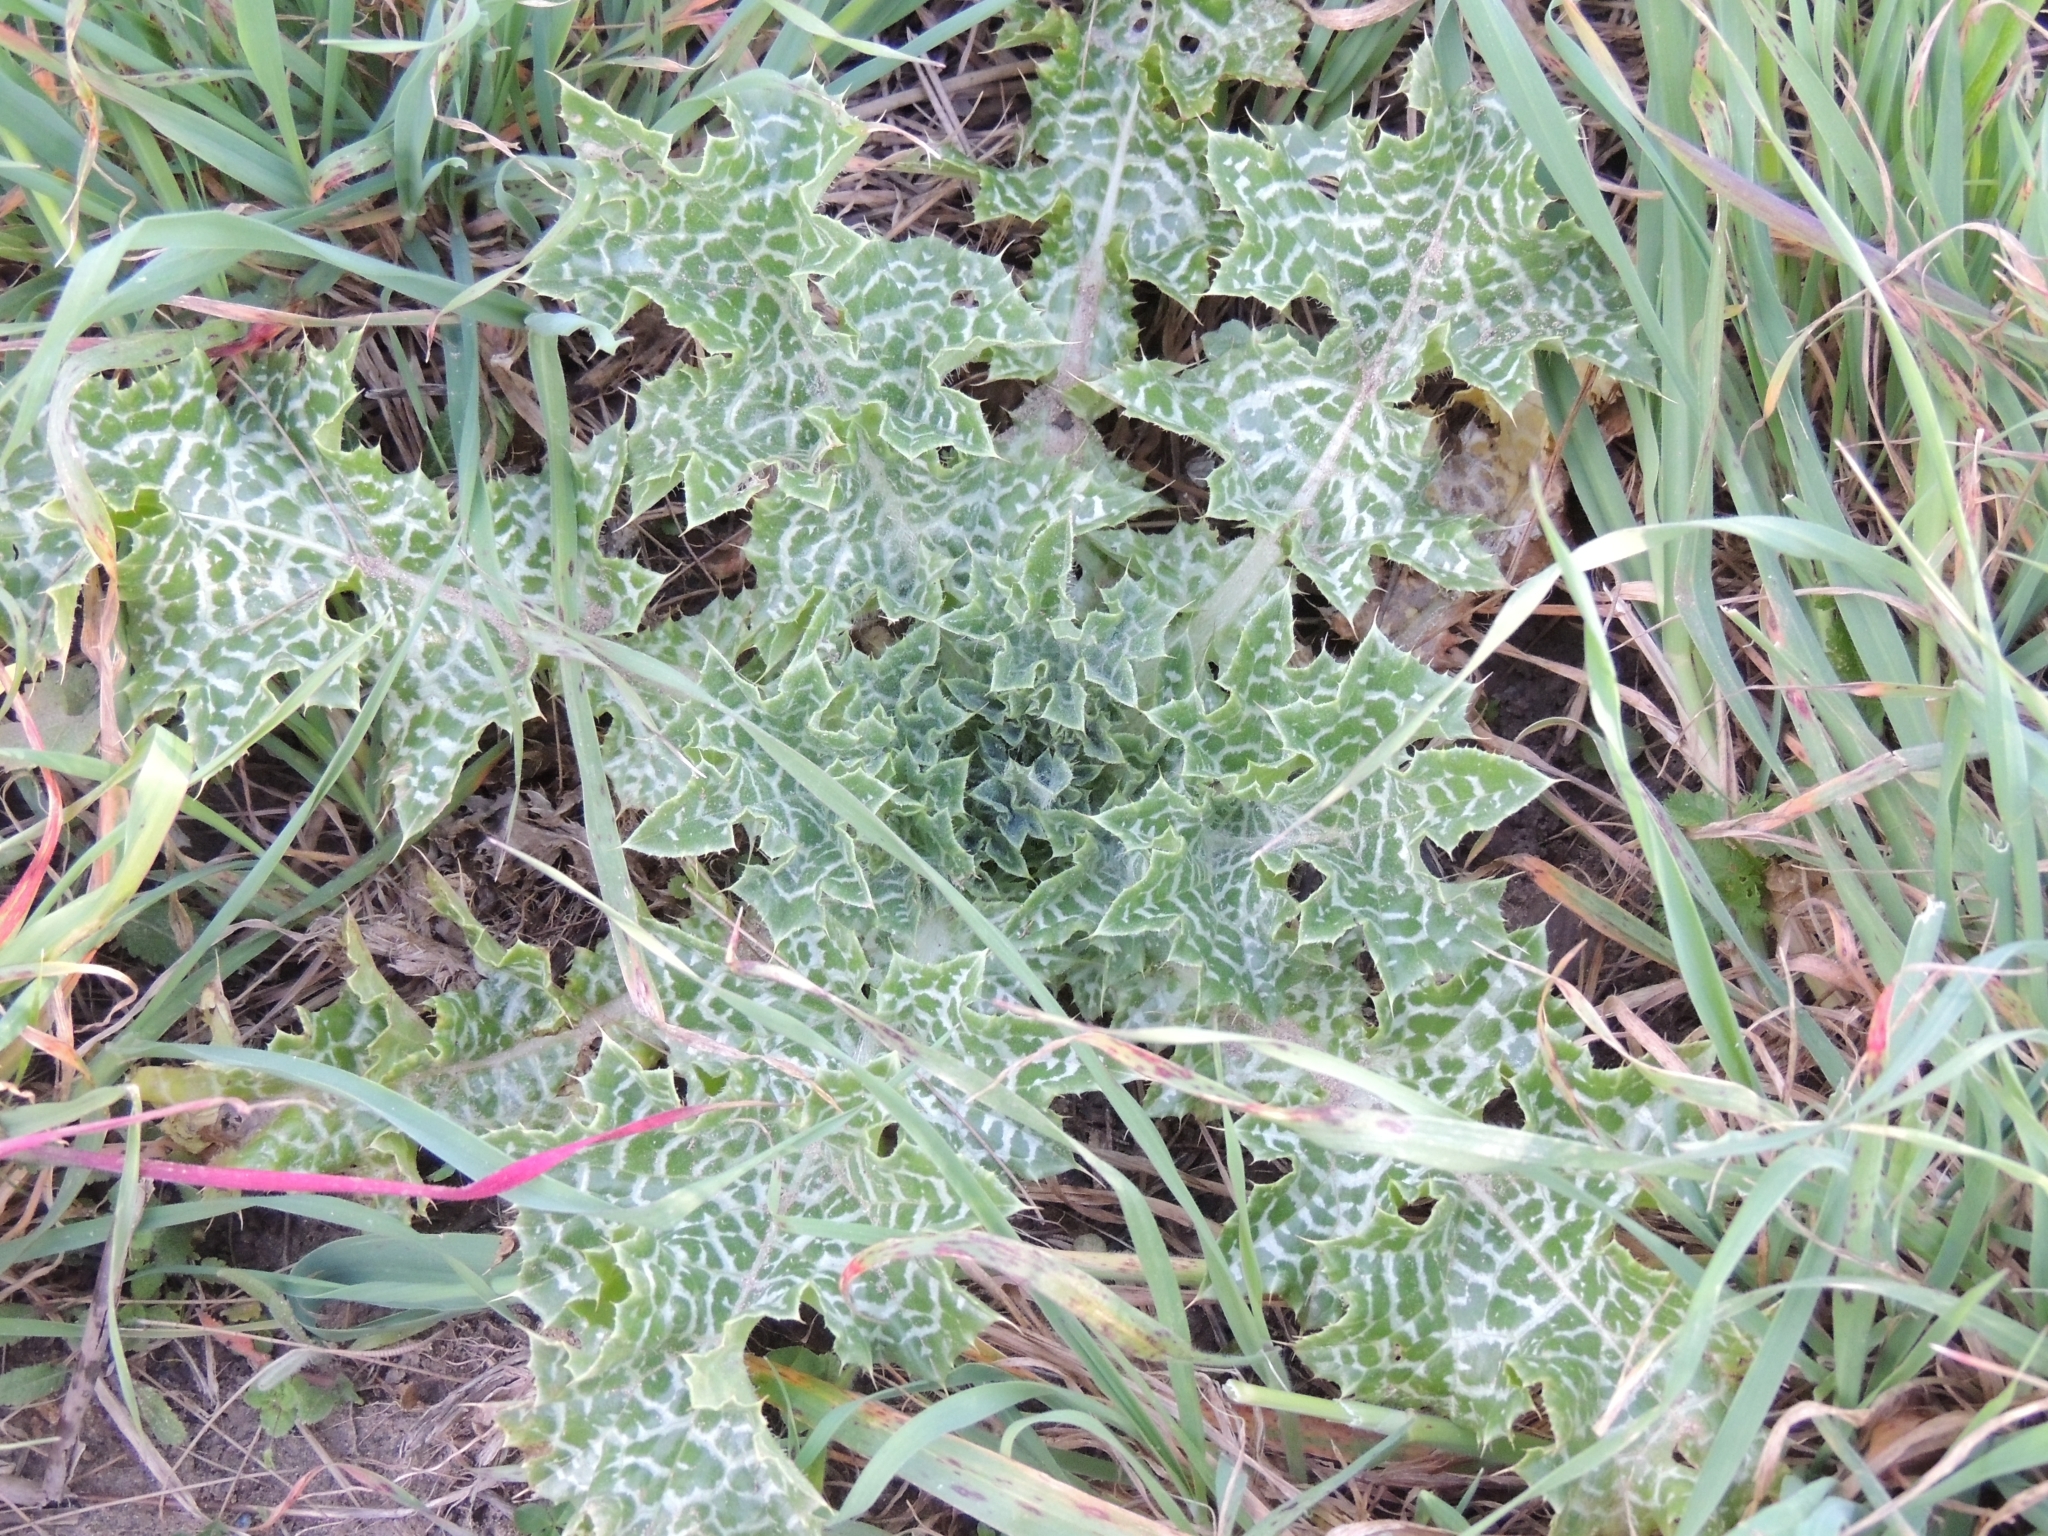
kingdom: Plantae
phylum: Tracheophyta
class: Magnoliopsida
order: Asterales
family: Asteraceae
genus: Silybum
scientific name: Silybum marianum
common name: Milk thistle
